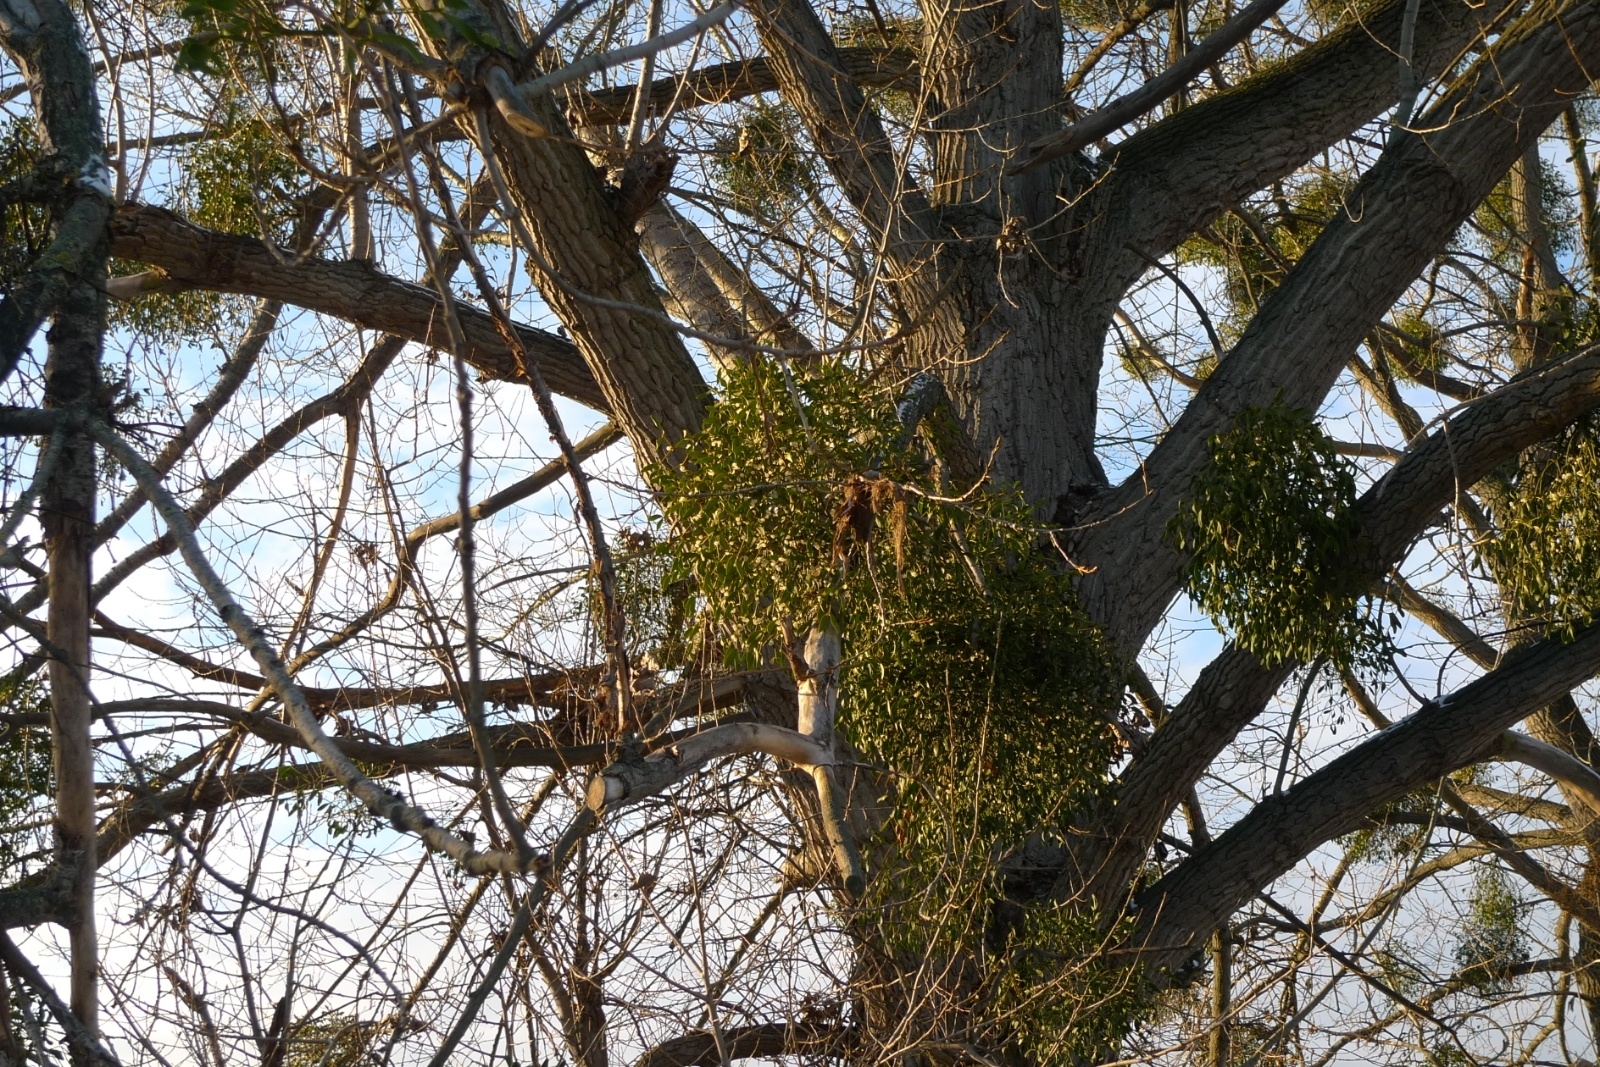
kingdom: Plantae
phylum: Tracheophyta
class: Magnoliopsida
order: Santalales
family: Viscaceae
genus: Viscum
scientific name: Viscum album
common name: Mistletoe
